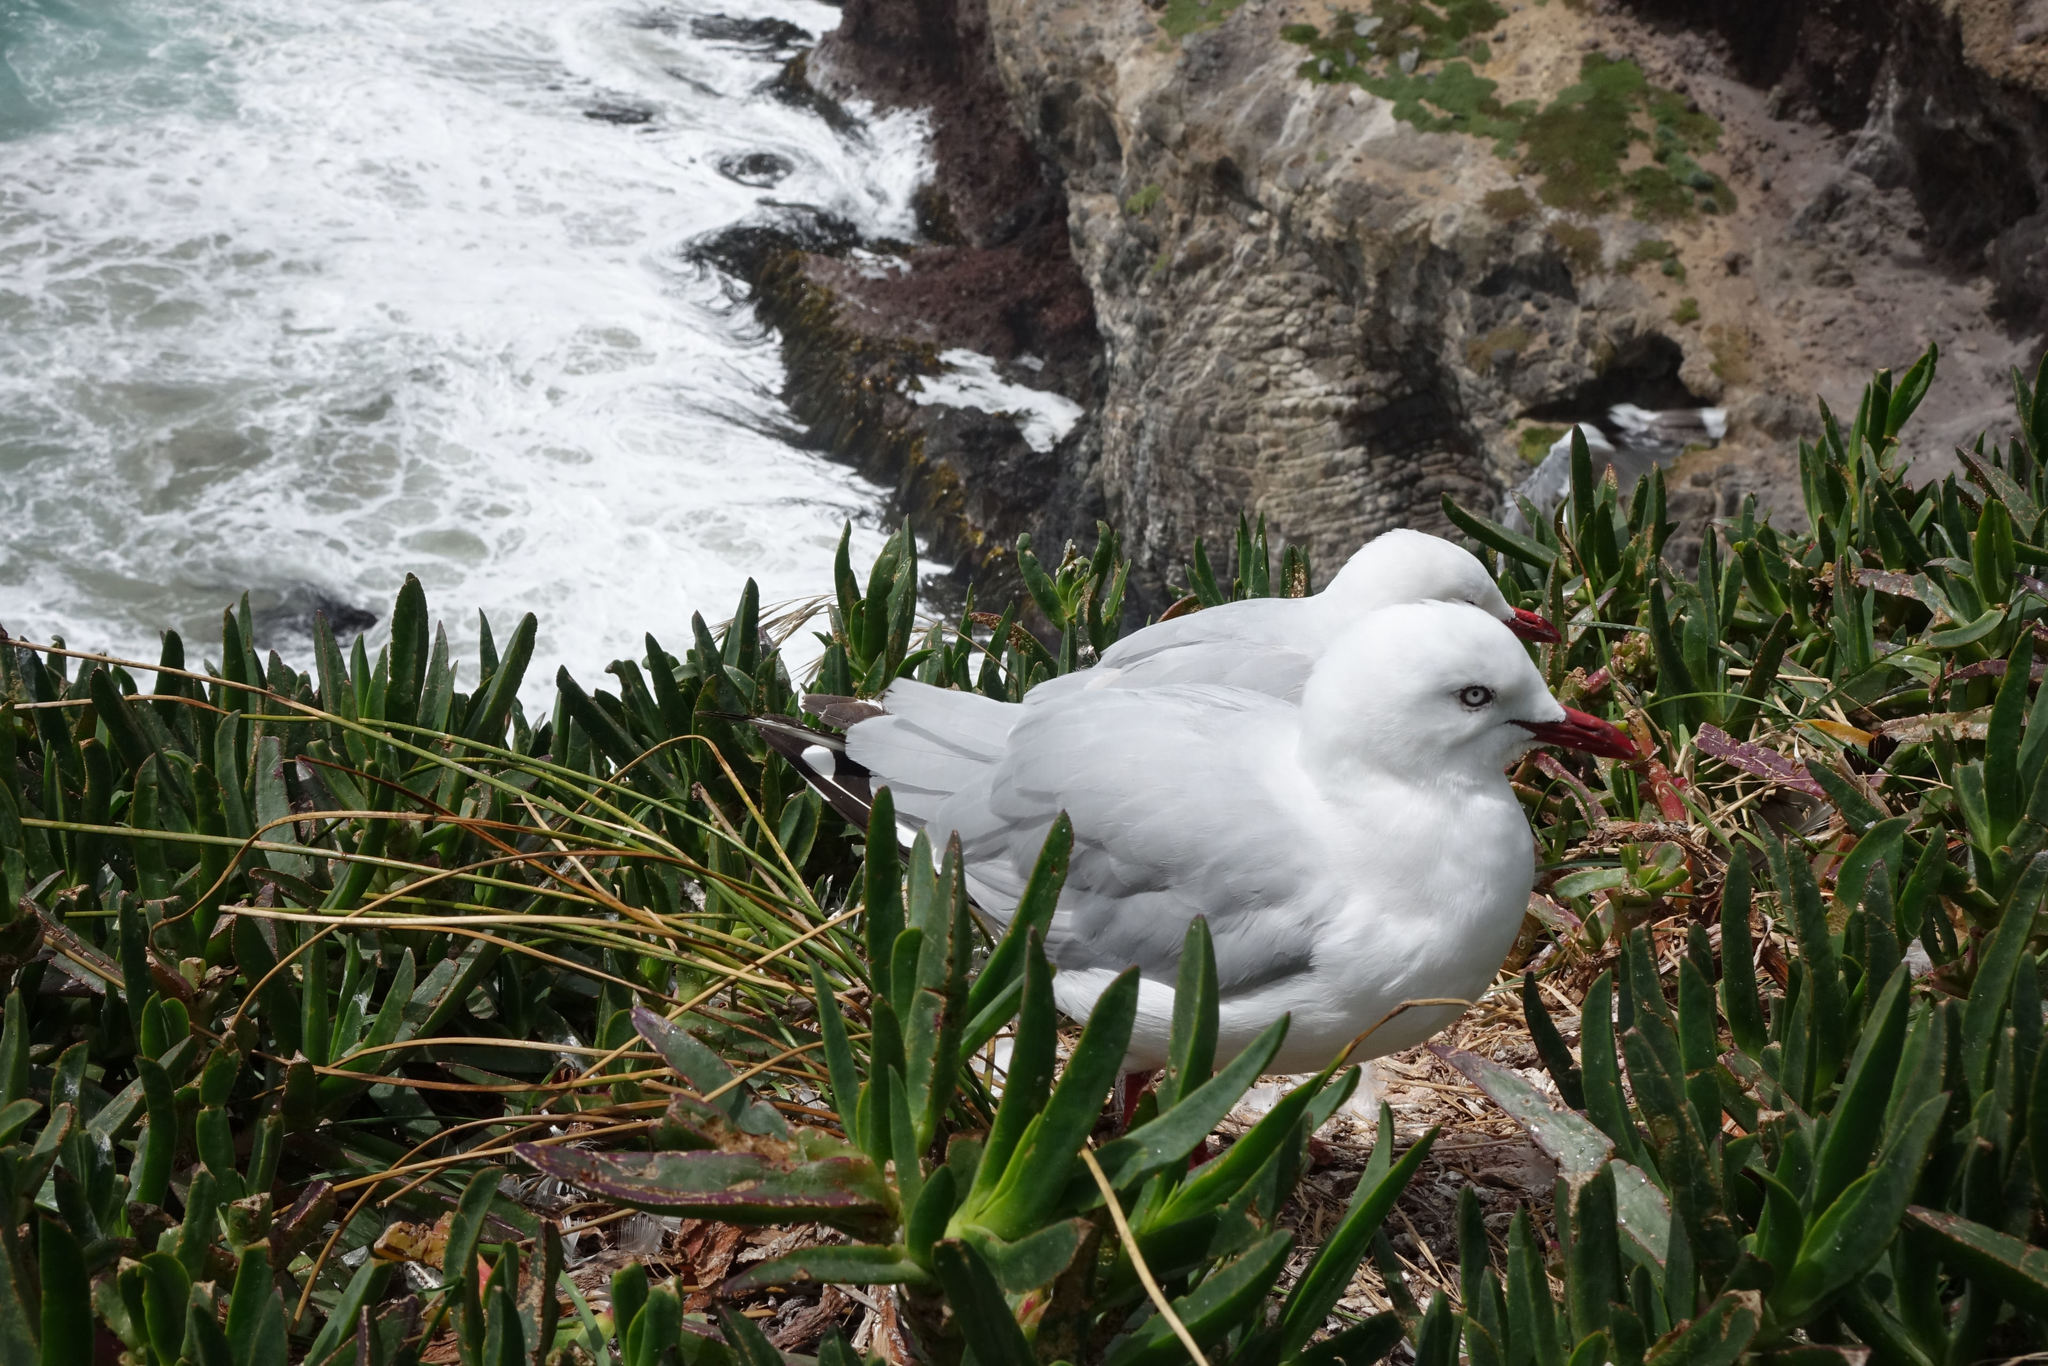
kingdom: Animalia
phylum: Chordata
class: Aves
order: Charadriiformes
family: Laridae
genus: Chroicocephalus
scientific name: Chroicocephalus novaehollandiae
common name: Silver gull
